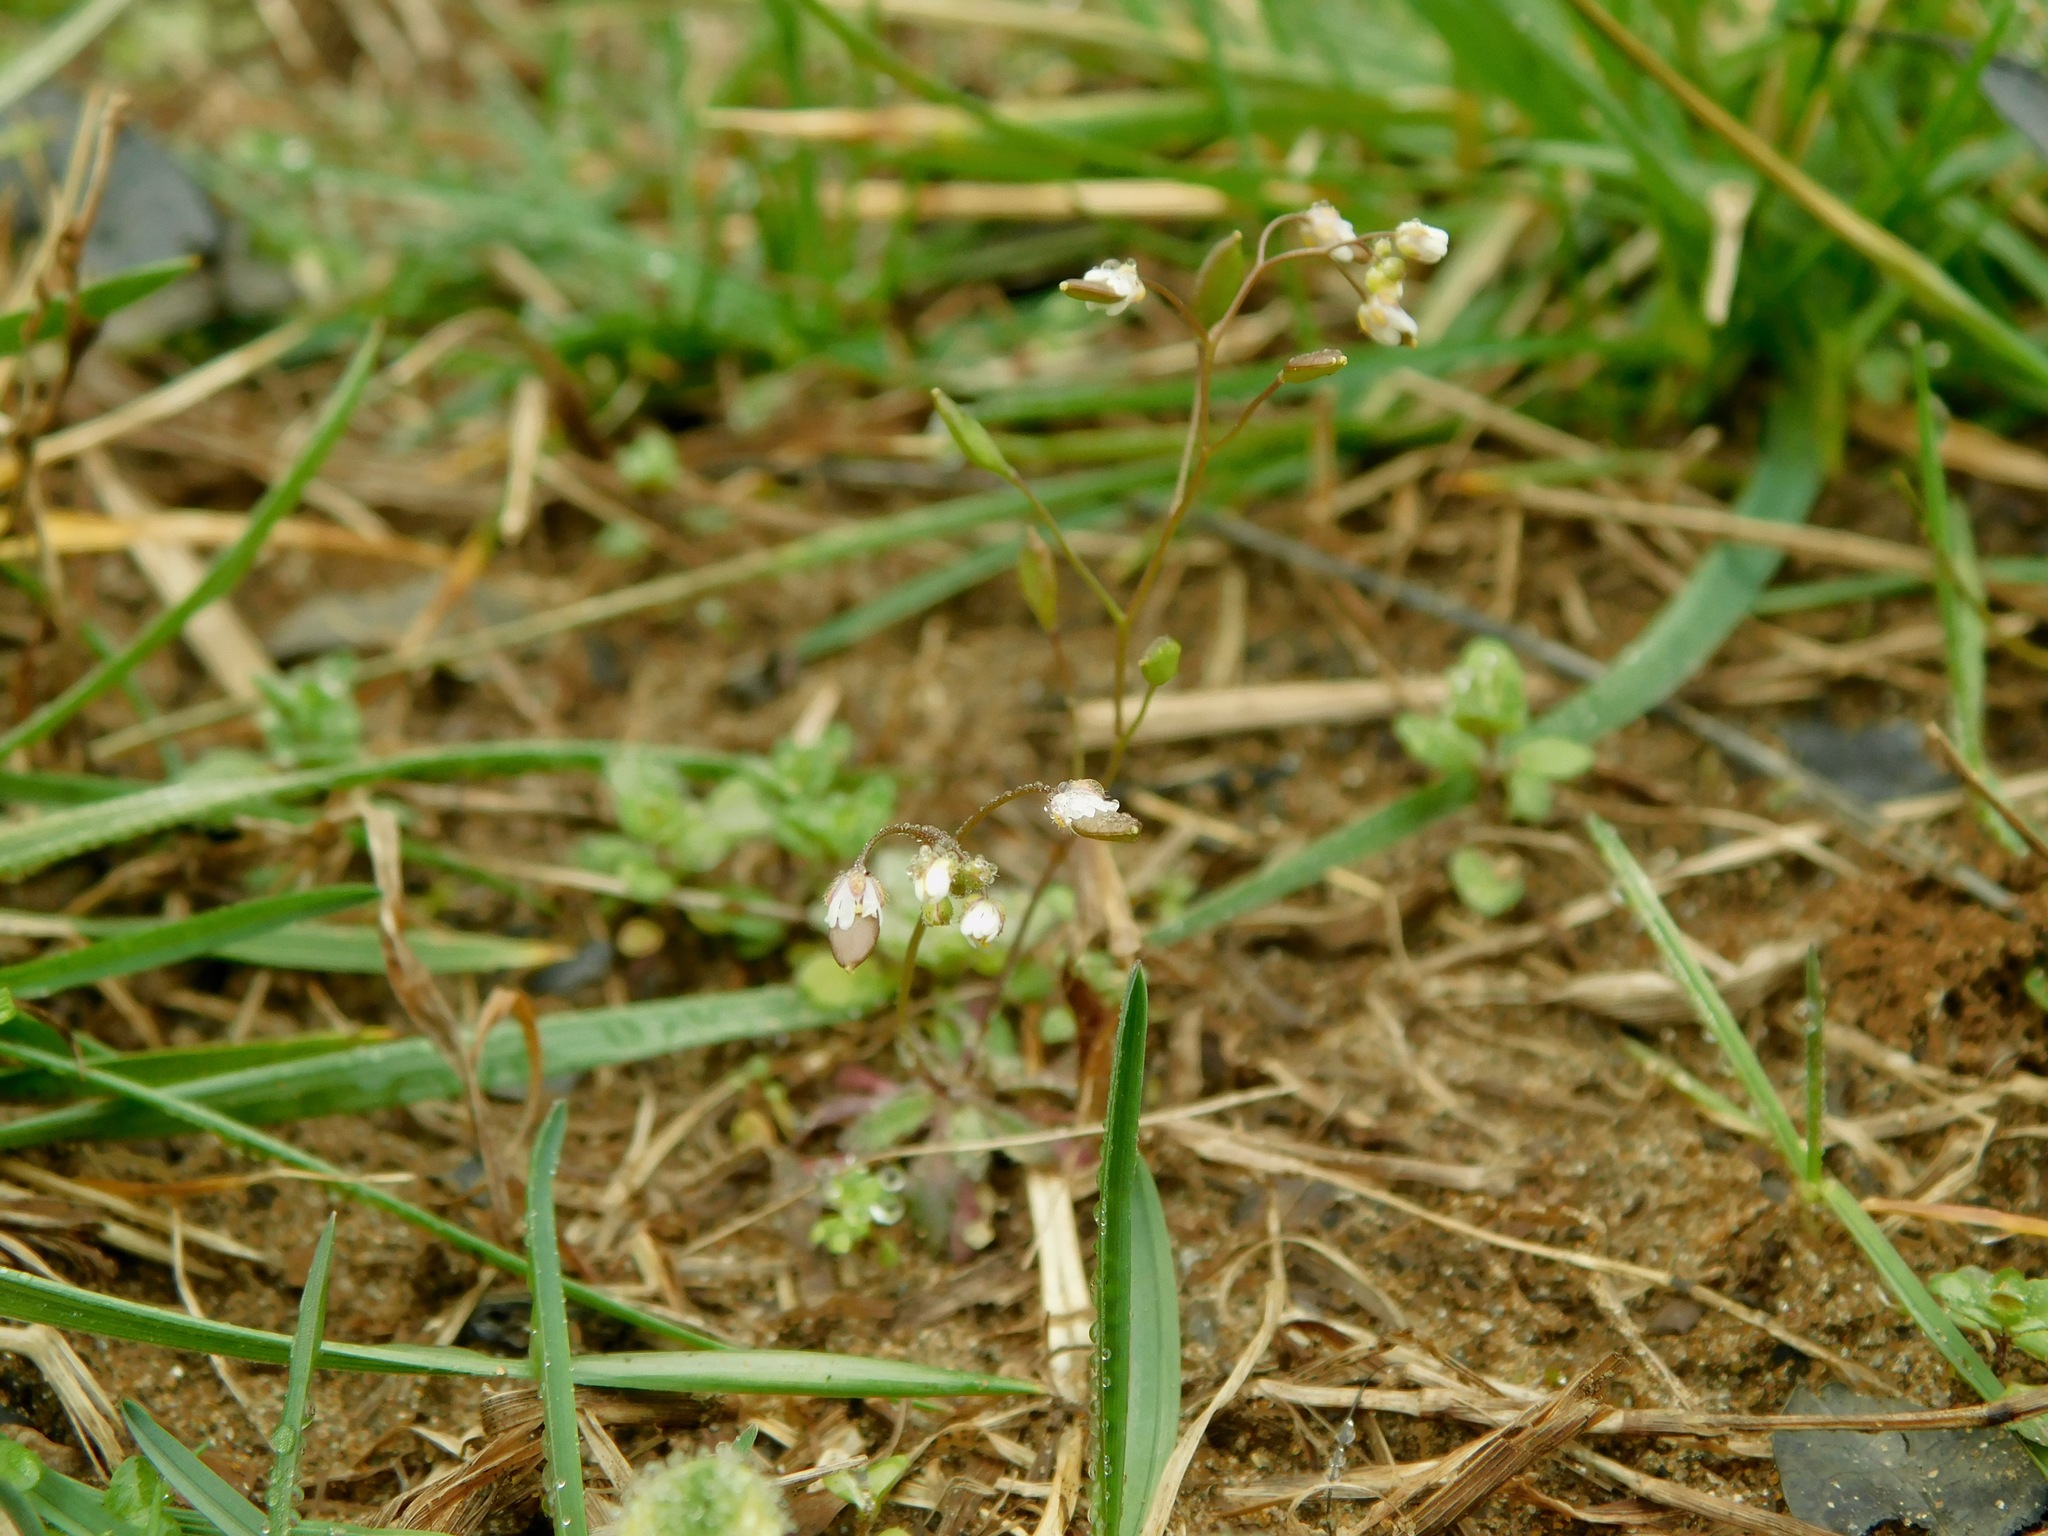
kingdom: Plantae
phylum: Tracheophyta
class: Magnoliopsida
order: Brassicales
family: Brassicaceae
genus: Draba
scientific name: Draba verna
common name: Spring draba
